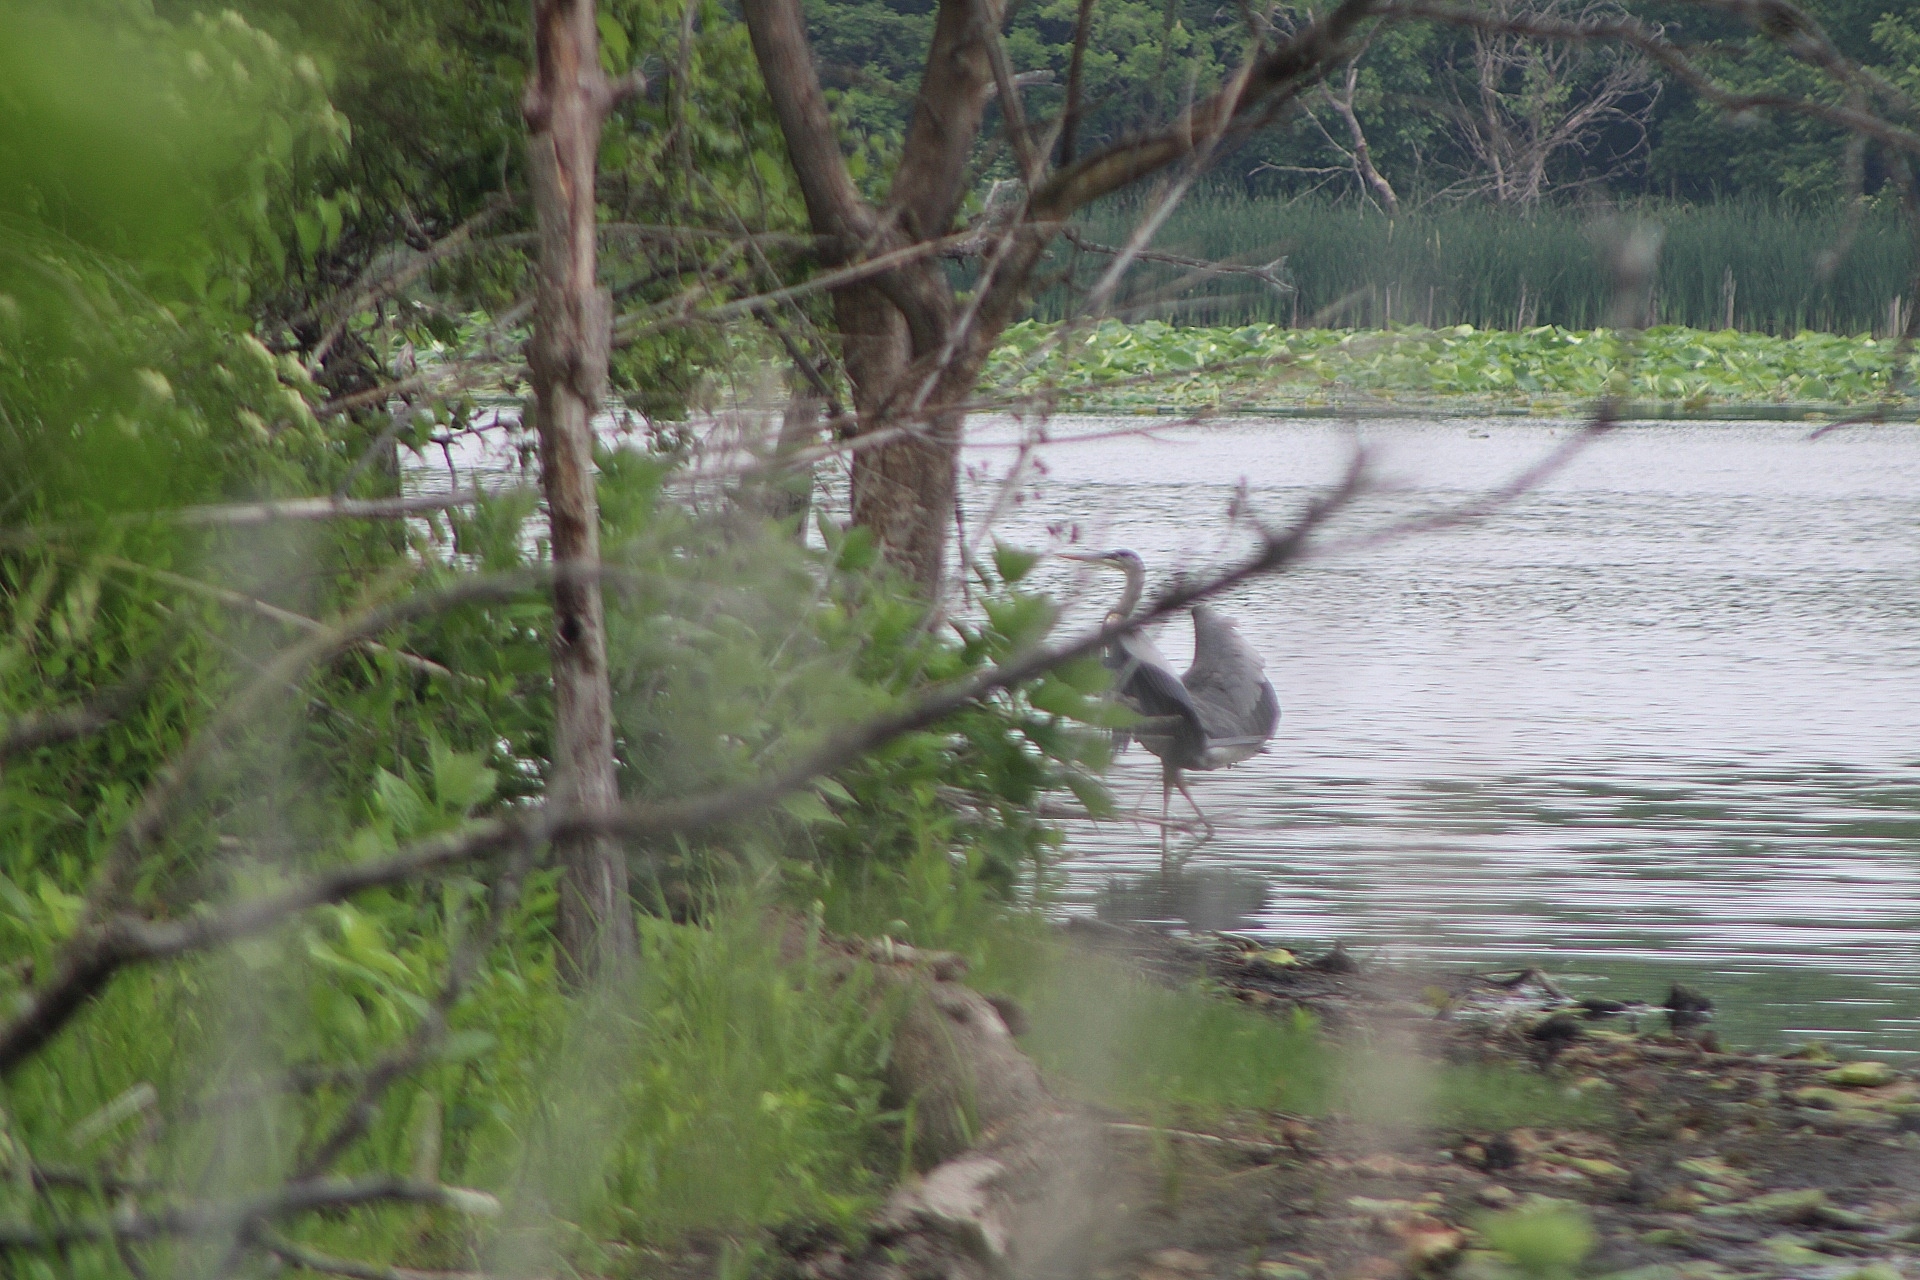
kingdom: Animalia
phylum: Chordata
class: Aves
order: Pelecaniformes
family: Ardeidae
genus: Ardea
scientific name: Ardea herodias
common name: Great blue heron
